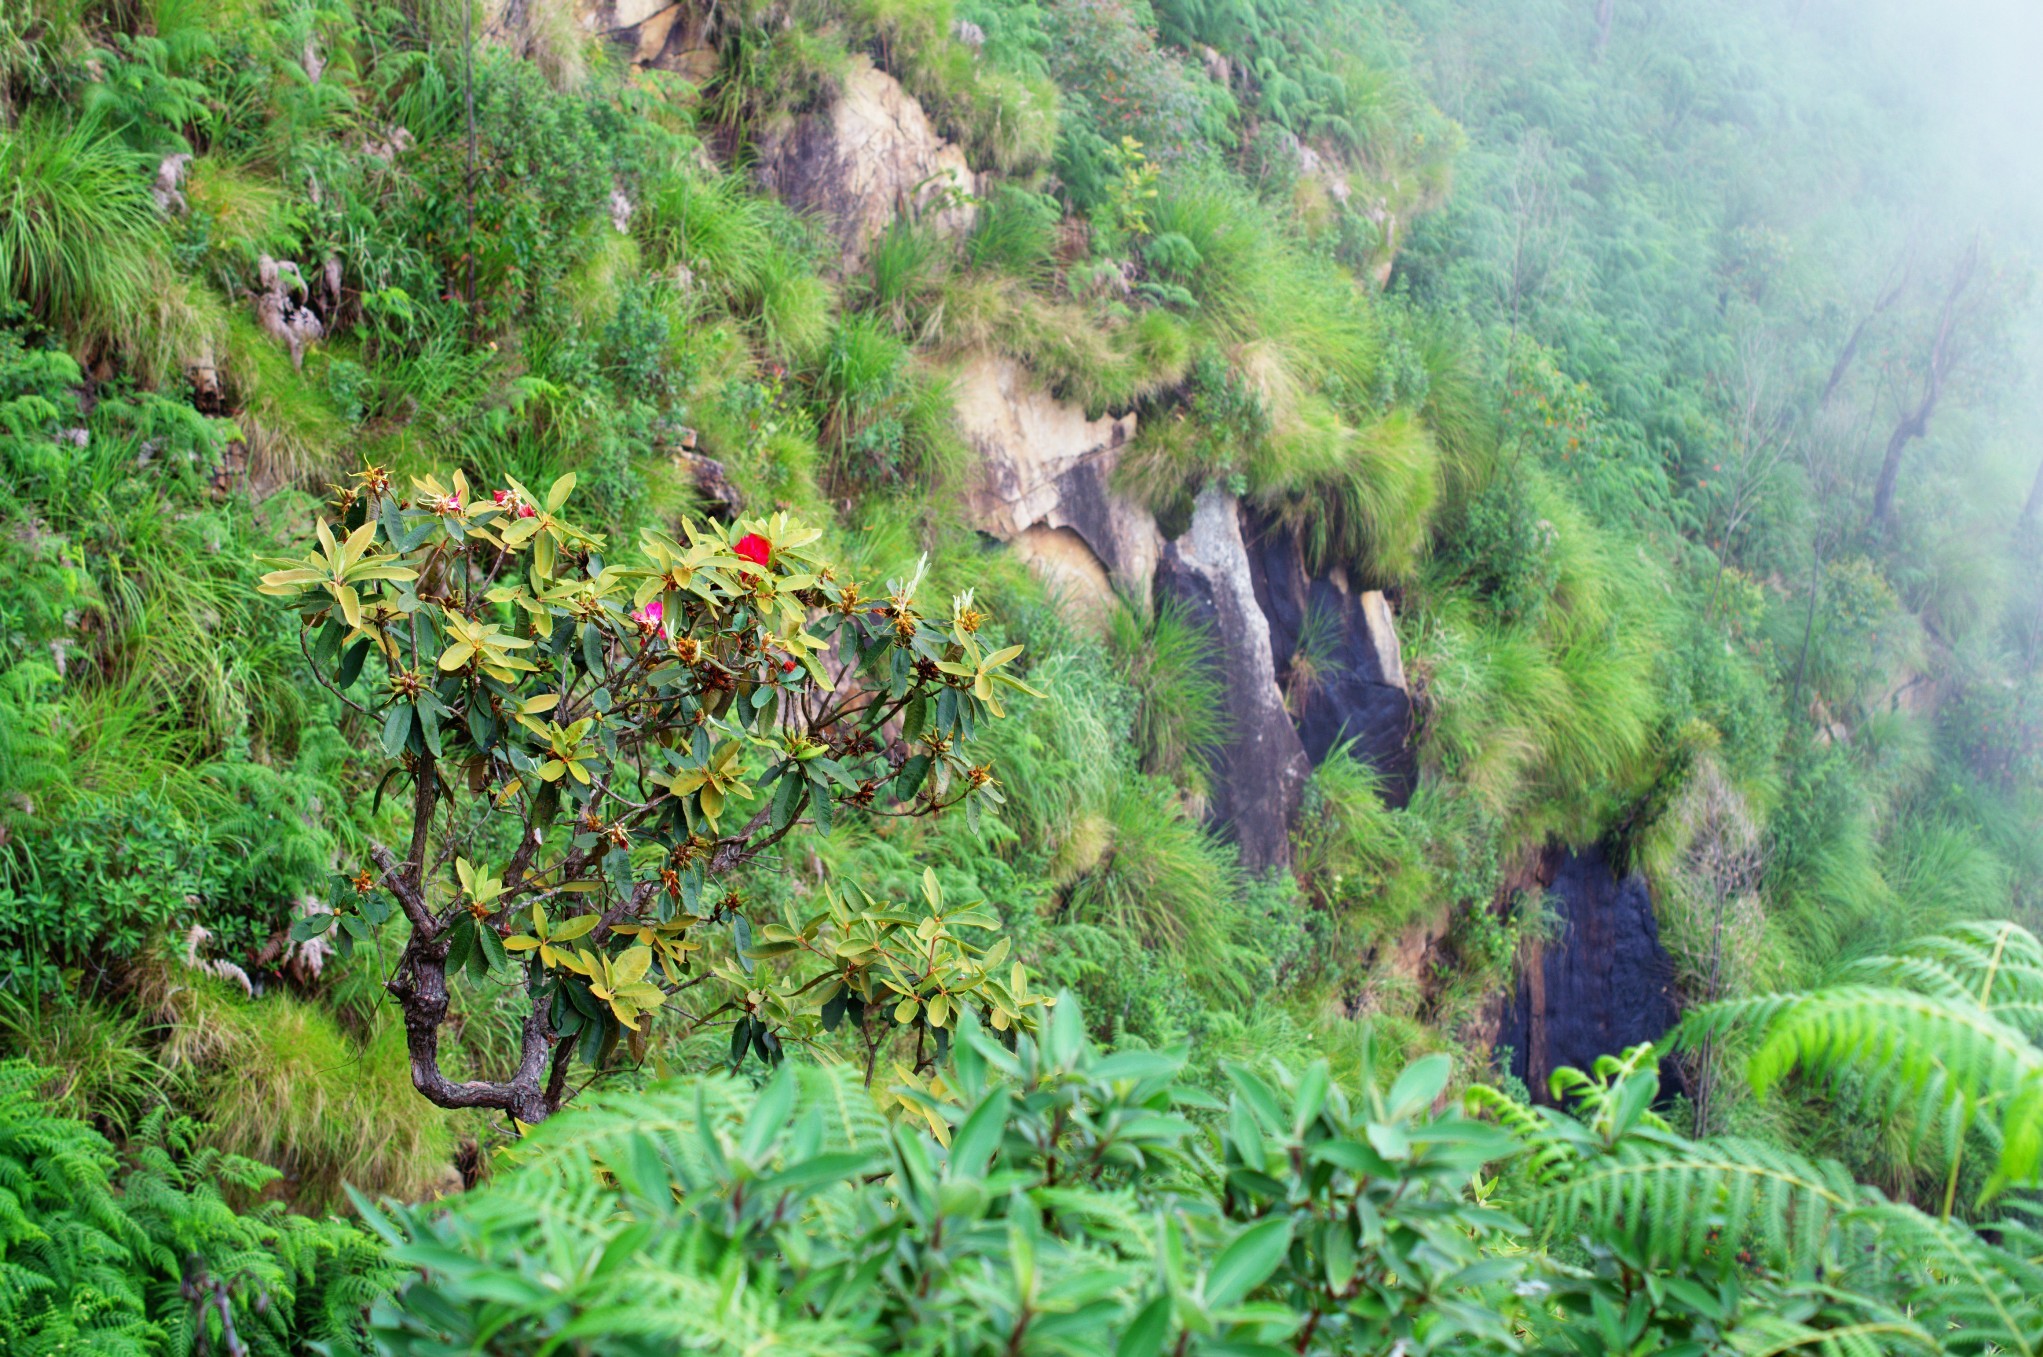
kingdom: Plantae
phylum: Tracheophyta
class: Magnoliopsida
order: Ericales
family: Ericaceae
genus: Rhododendron
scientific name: Rhododendron arboreum
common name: Tree rhododendron
